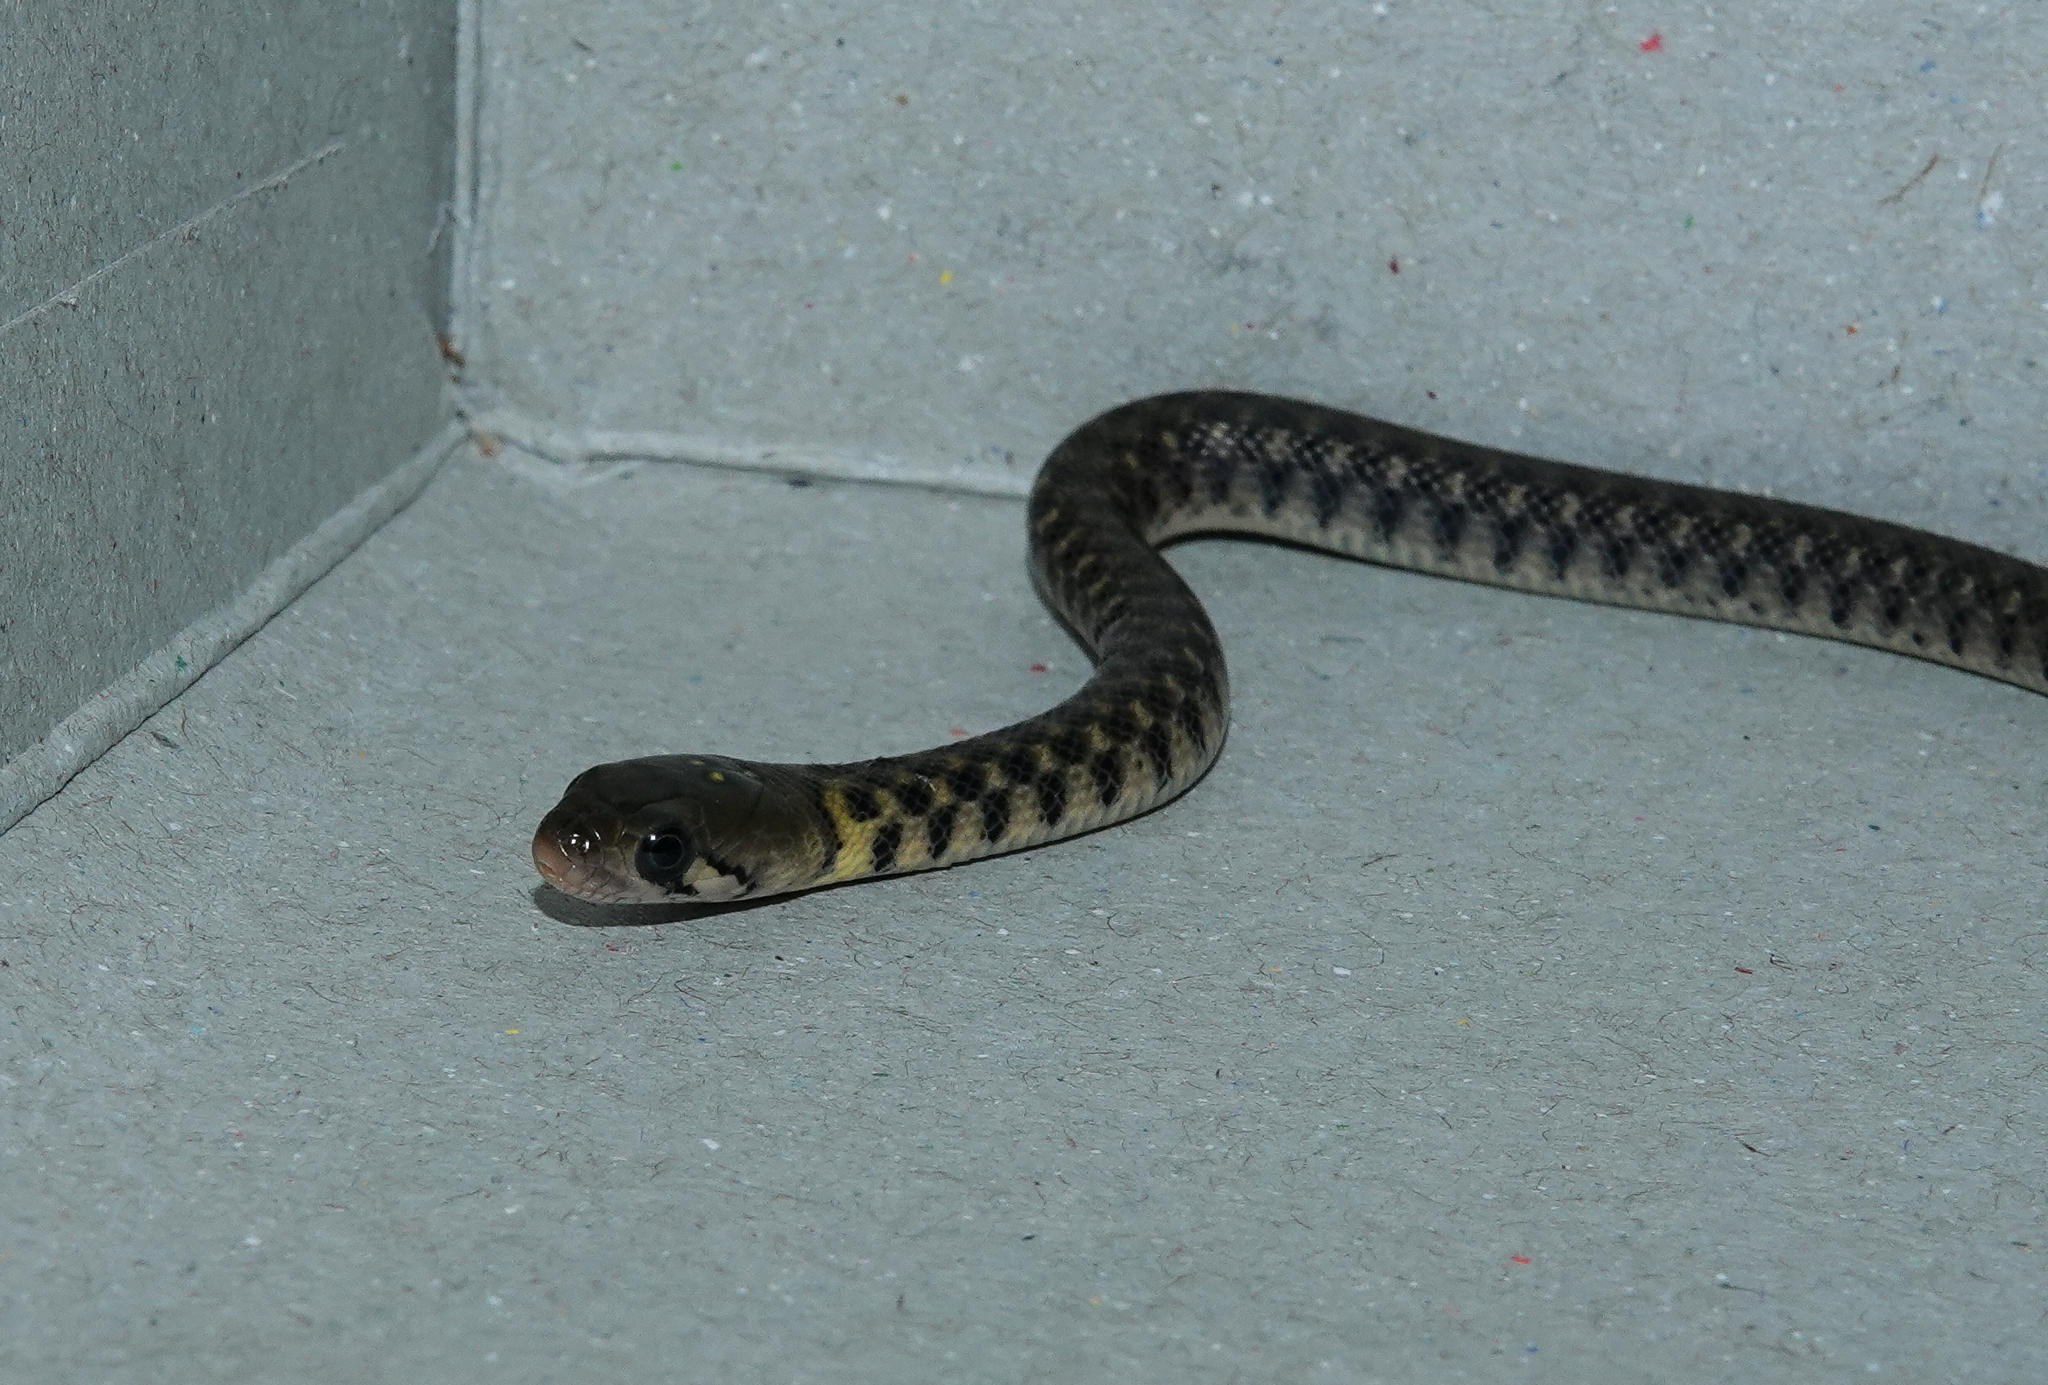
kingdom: Animalia
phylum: Chordata
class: Squamata
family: Colubridae
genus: Fowlea
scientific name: Fowlea piscator
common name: Asiatic water snake
